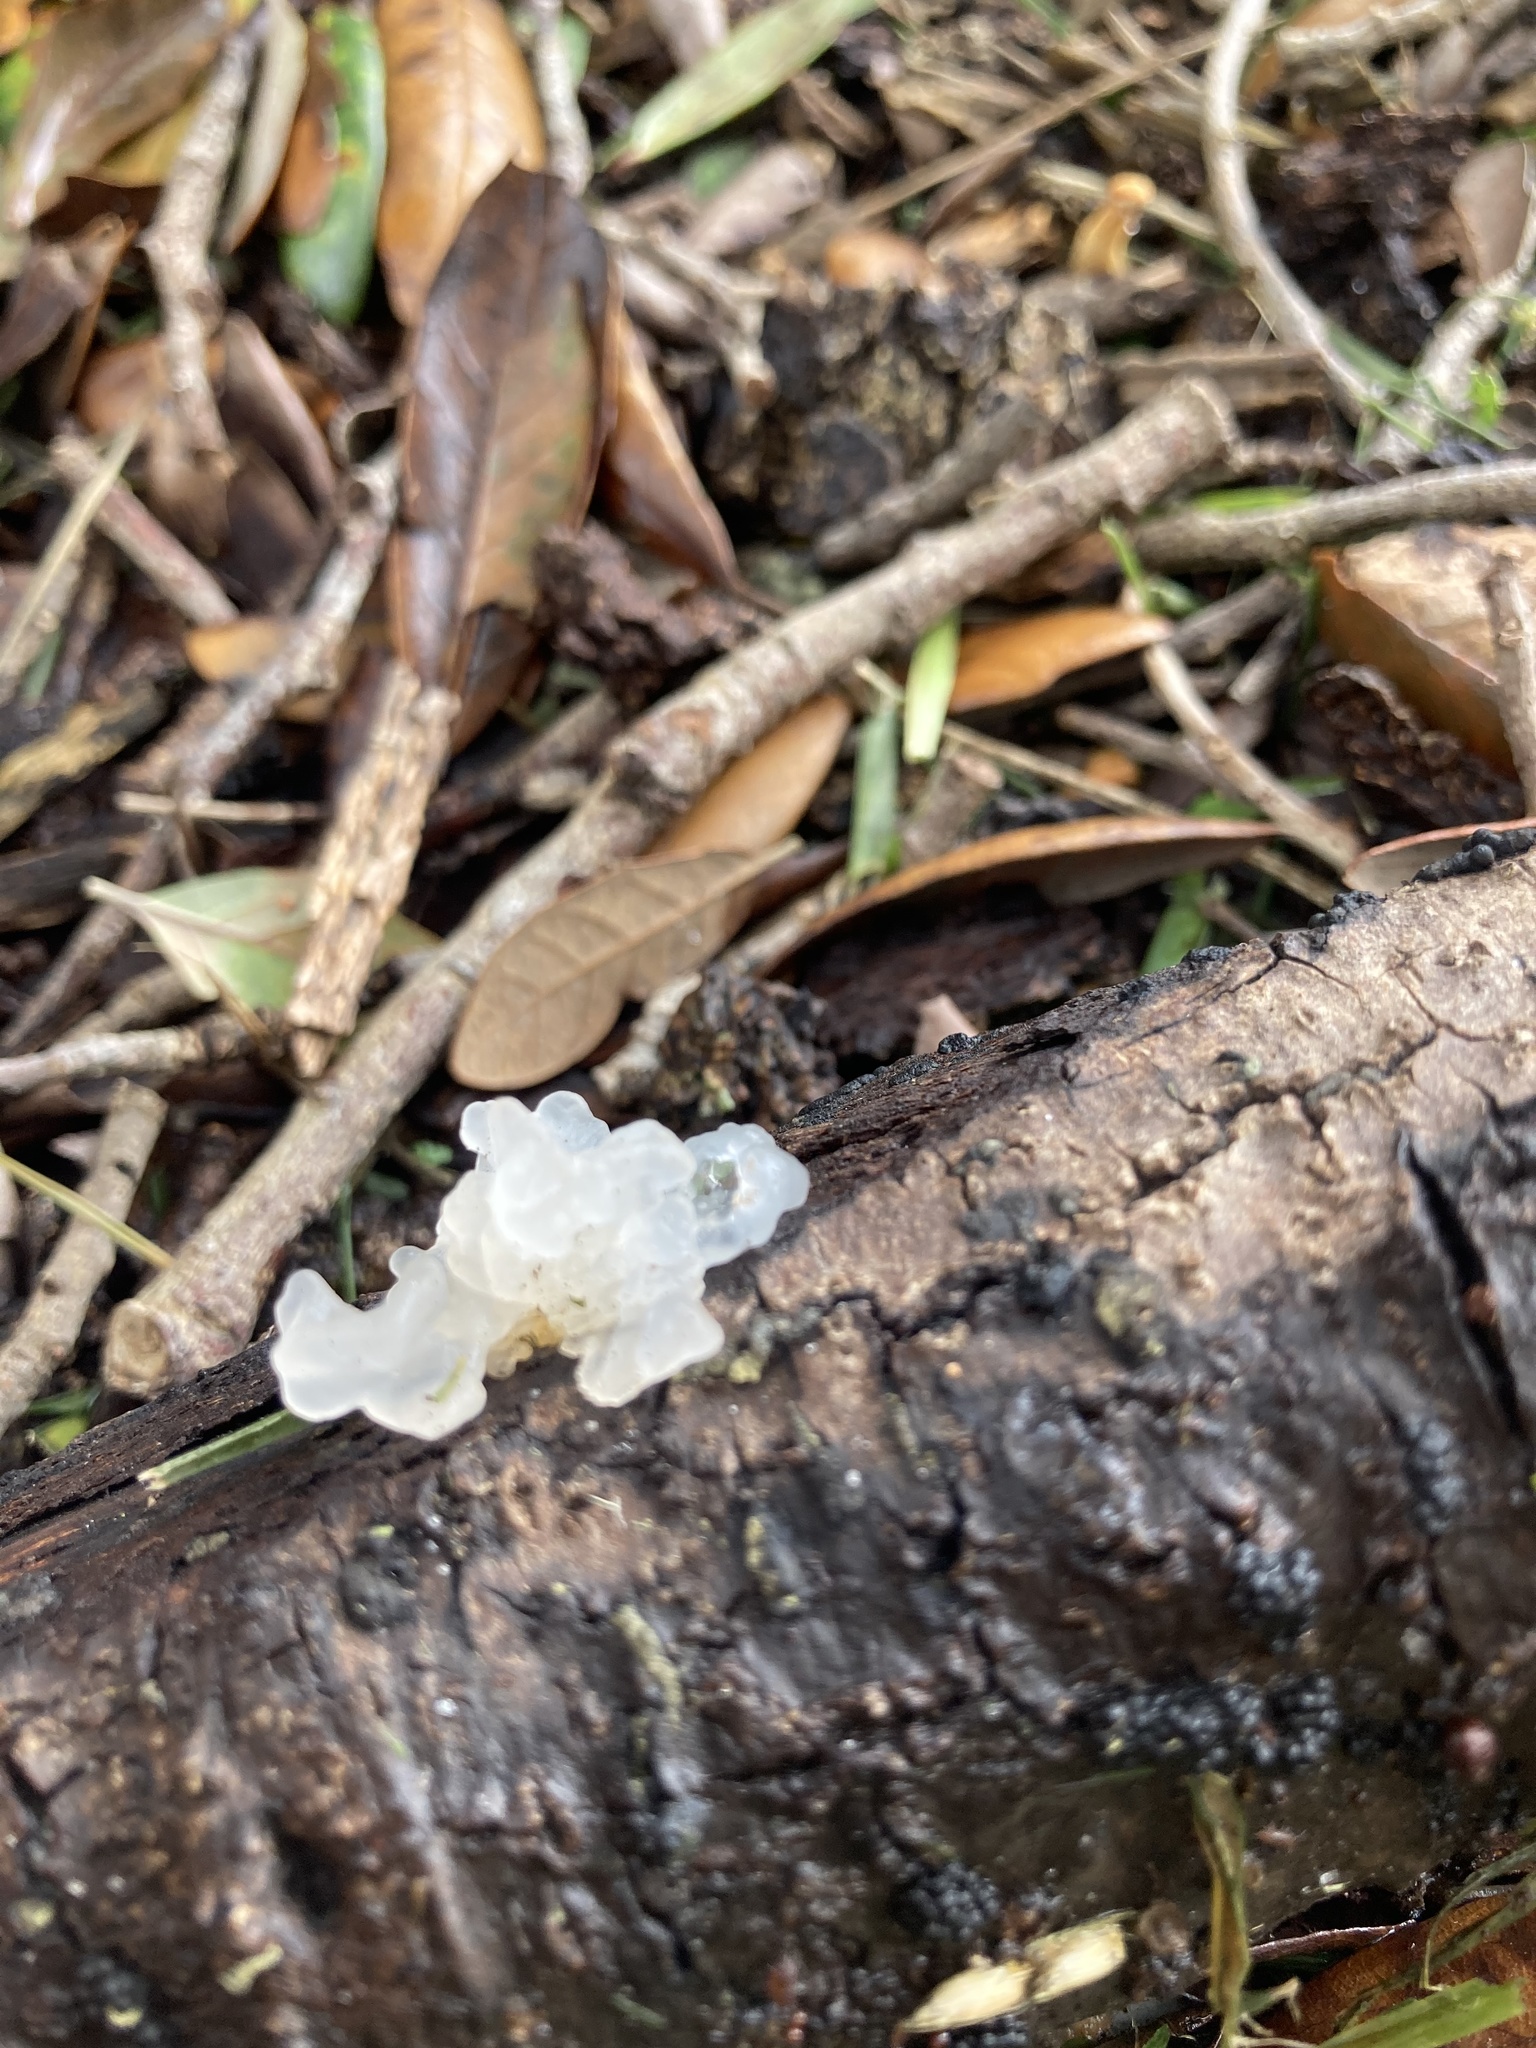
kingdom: Fungi
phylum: Basidiomycota
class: Tremellomycetes
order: Tremellales
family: Tremellaceae
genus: Tremella
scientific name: Tremella fuciformis
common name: Snow fungus
